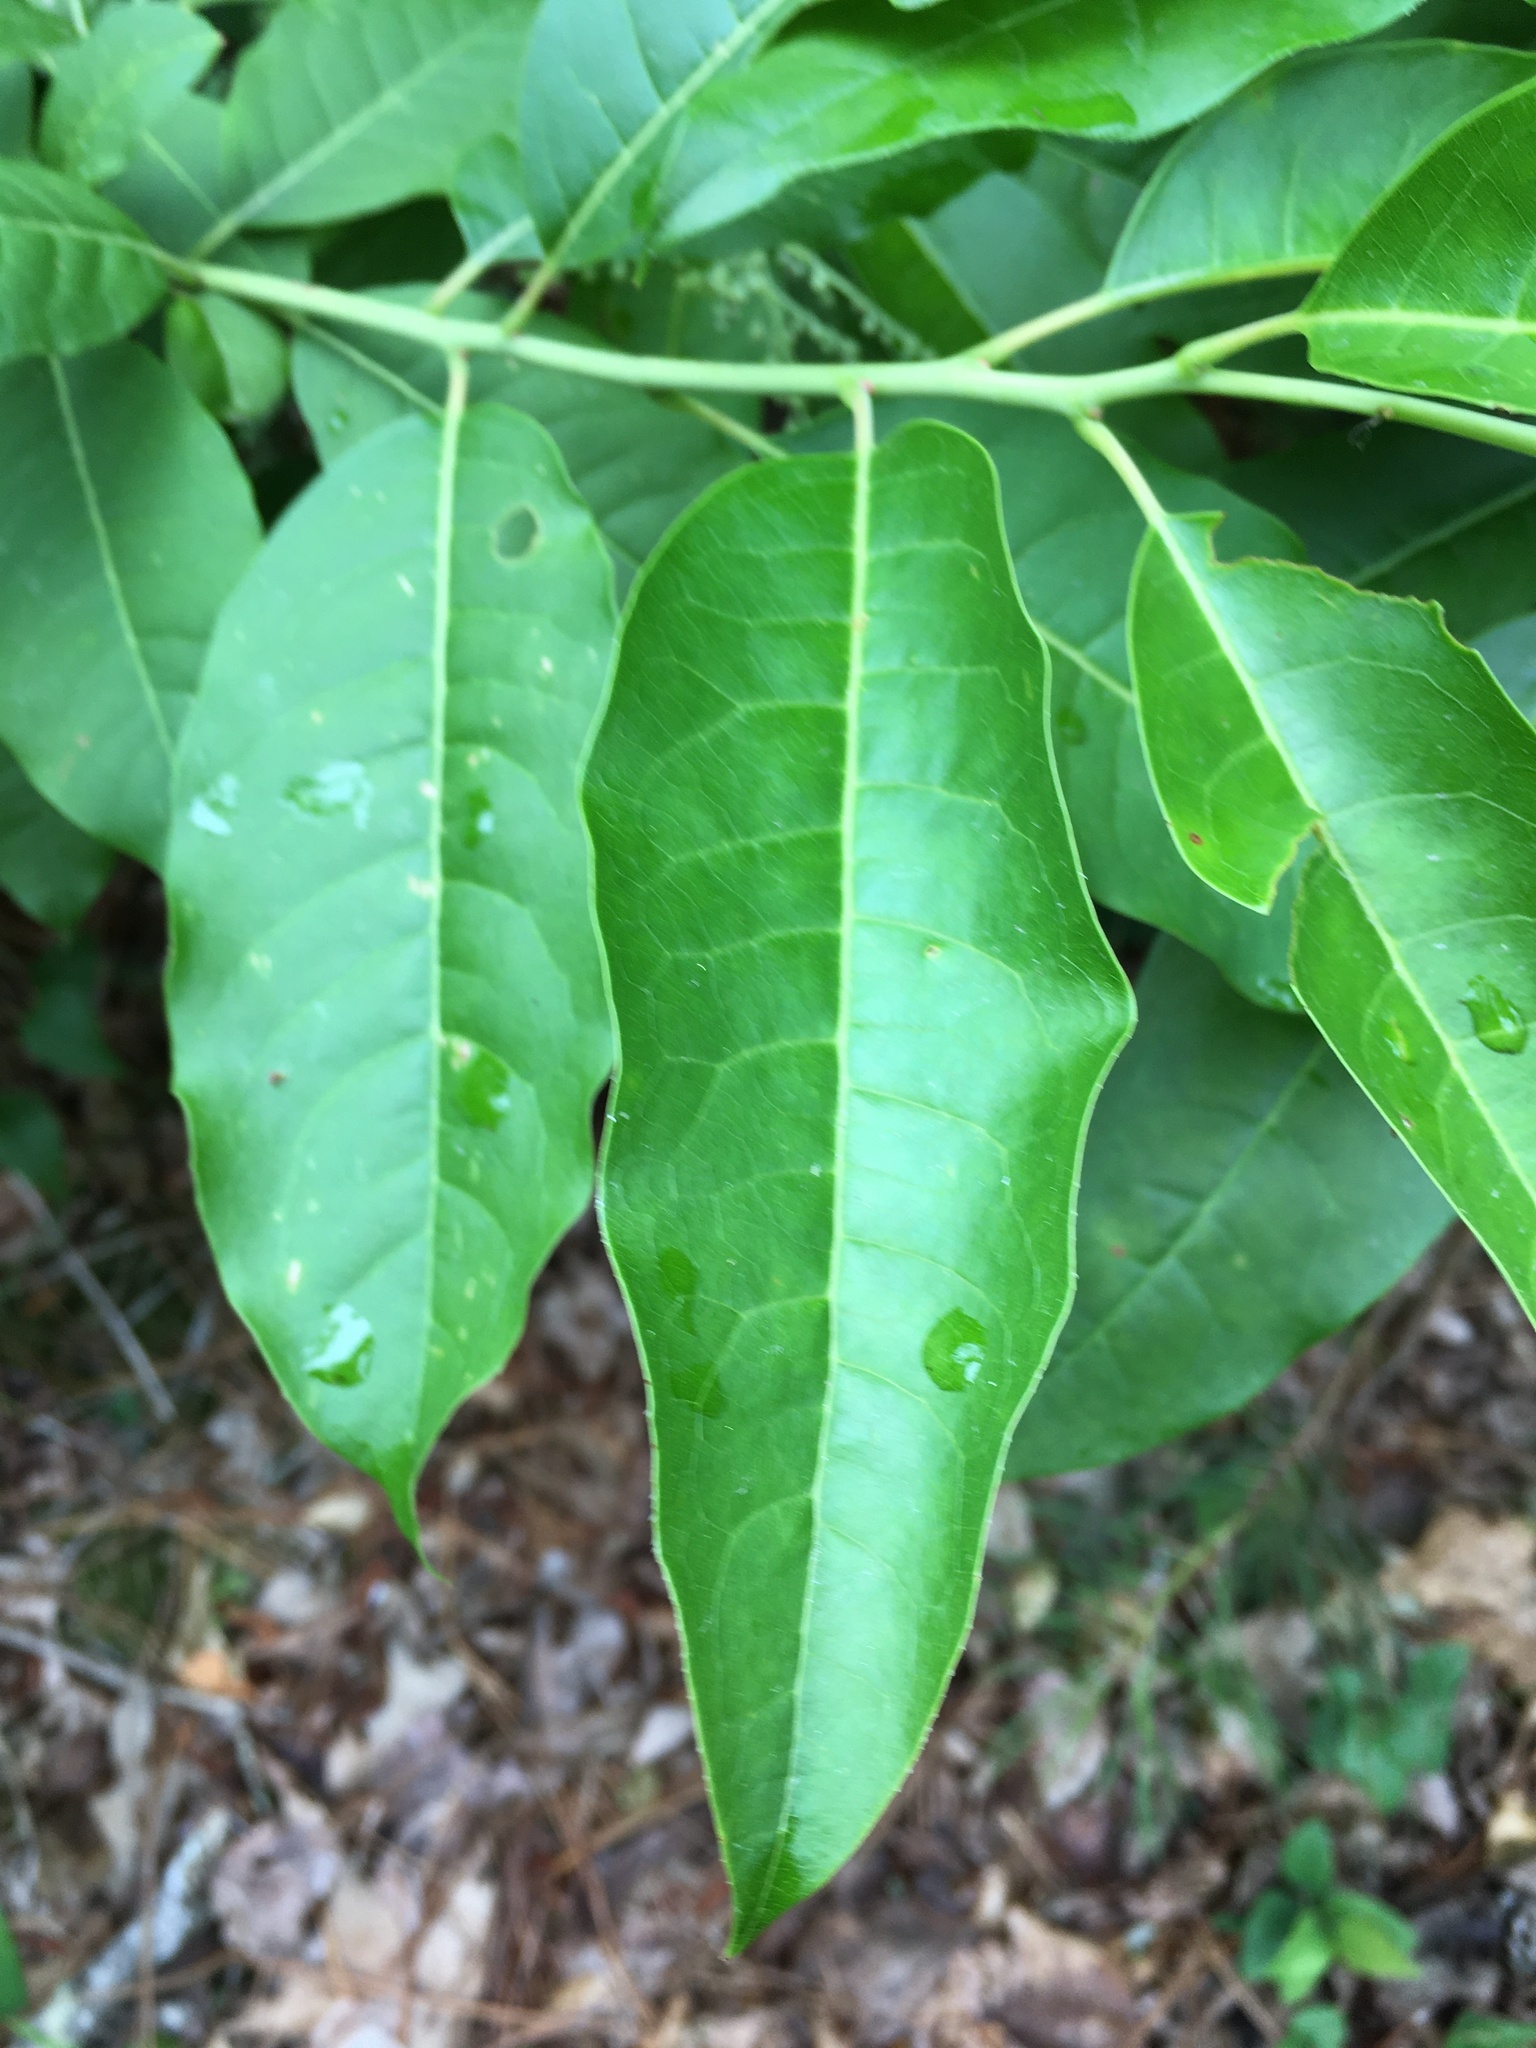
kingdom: Plantae
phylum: Tracheophyta
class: Magnoliopsida
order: Ericales
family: Ericaceae
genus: Oxydendrum
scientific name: Oxydendrum arboreum
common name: Sourwood
